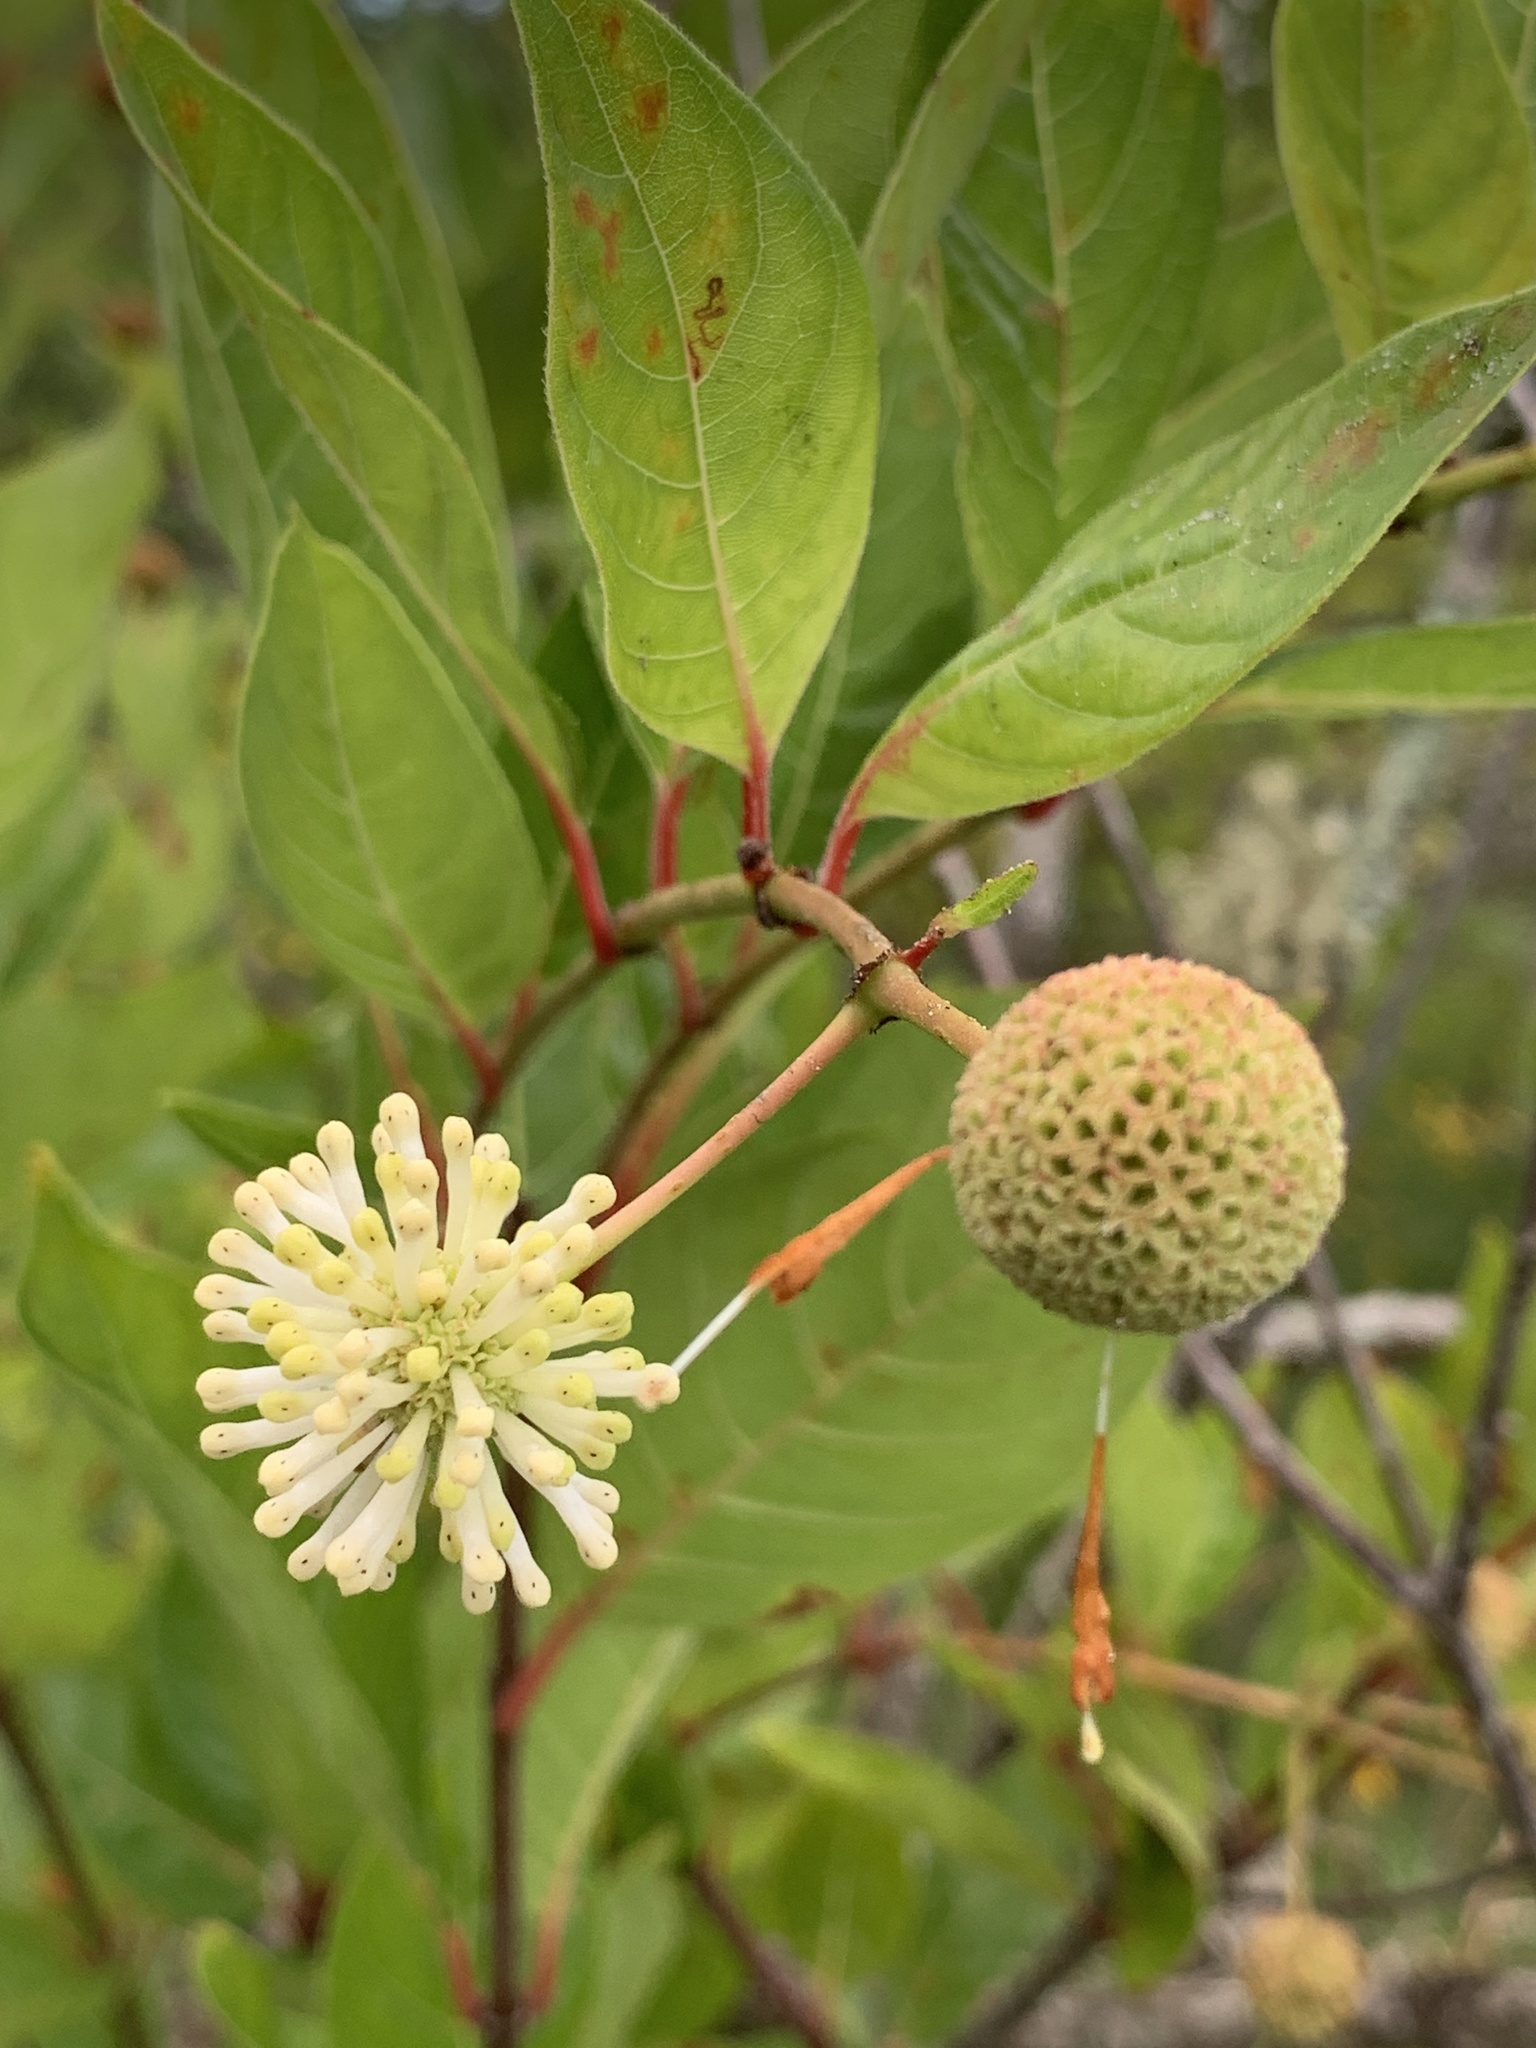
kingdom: Plantae
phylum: Tracheophyta
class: Magnoliopsida
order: Gentianales
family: Rubiaceae
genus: Cephalanthus
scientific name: Cephalanthus occidentalis
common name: Button-willow
